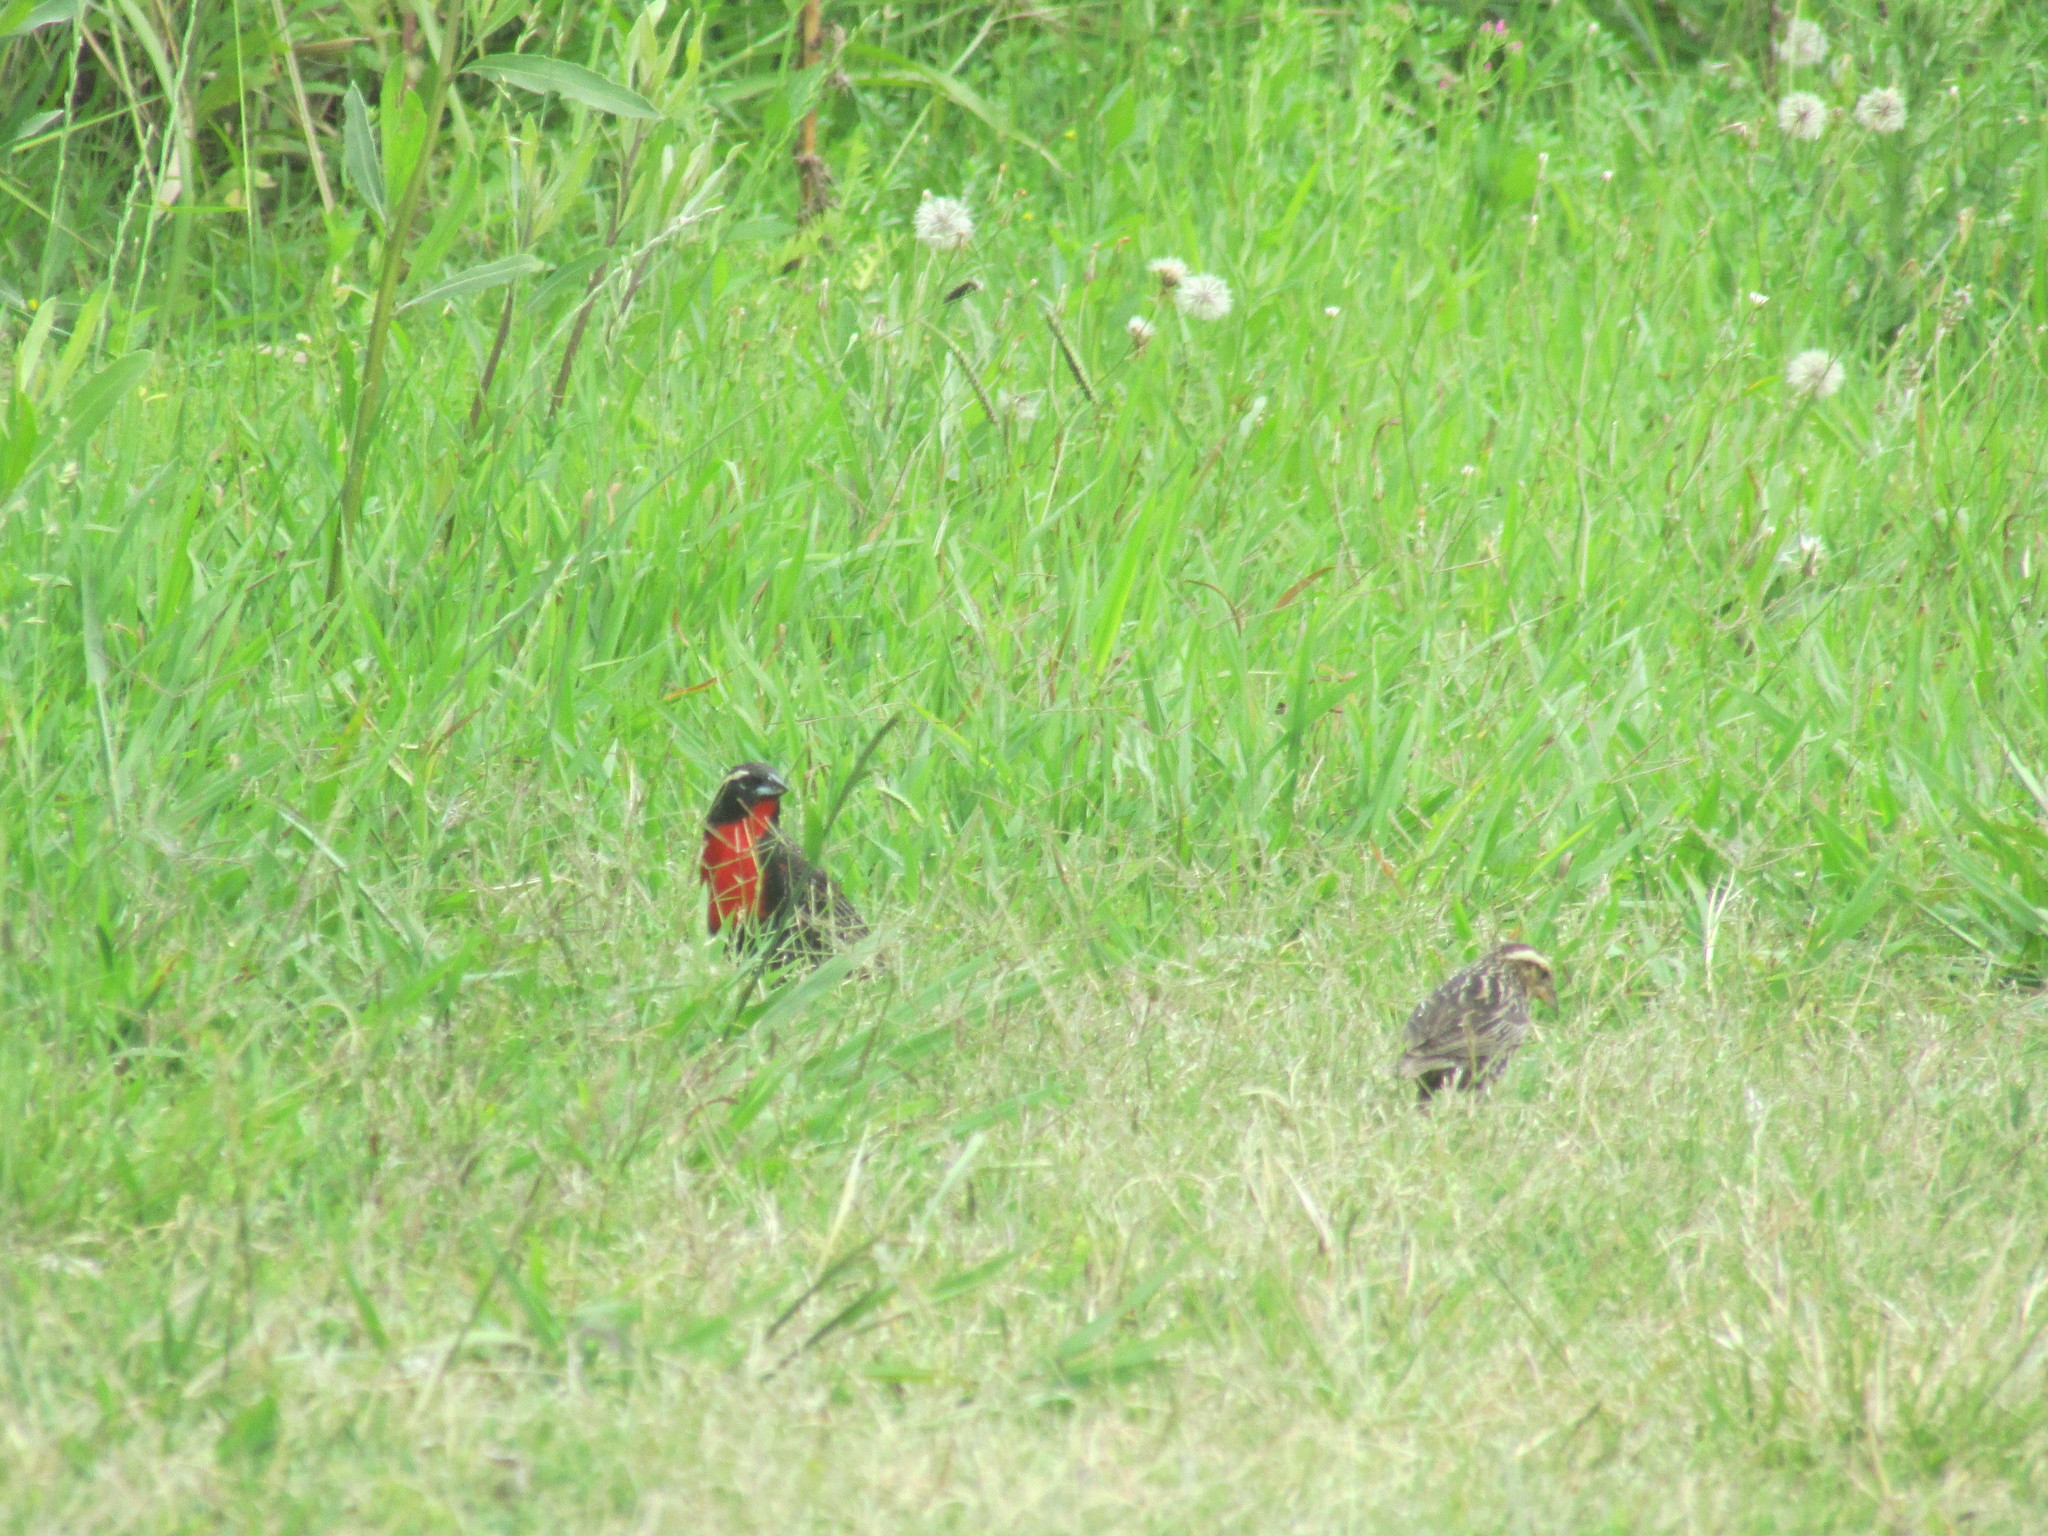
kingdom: Animalia
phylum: Chordata
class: Aves
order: Passeriformes
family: Icteridae
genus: Sturnella
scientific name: Sturnella superciliaris
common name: White-browed blackbird
